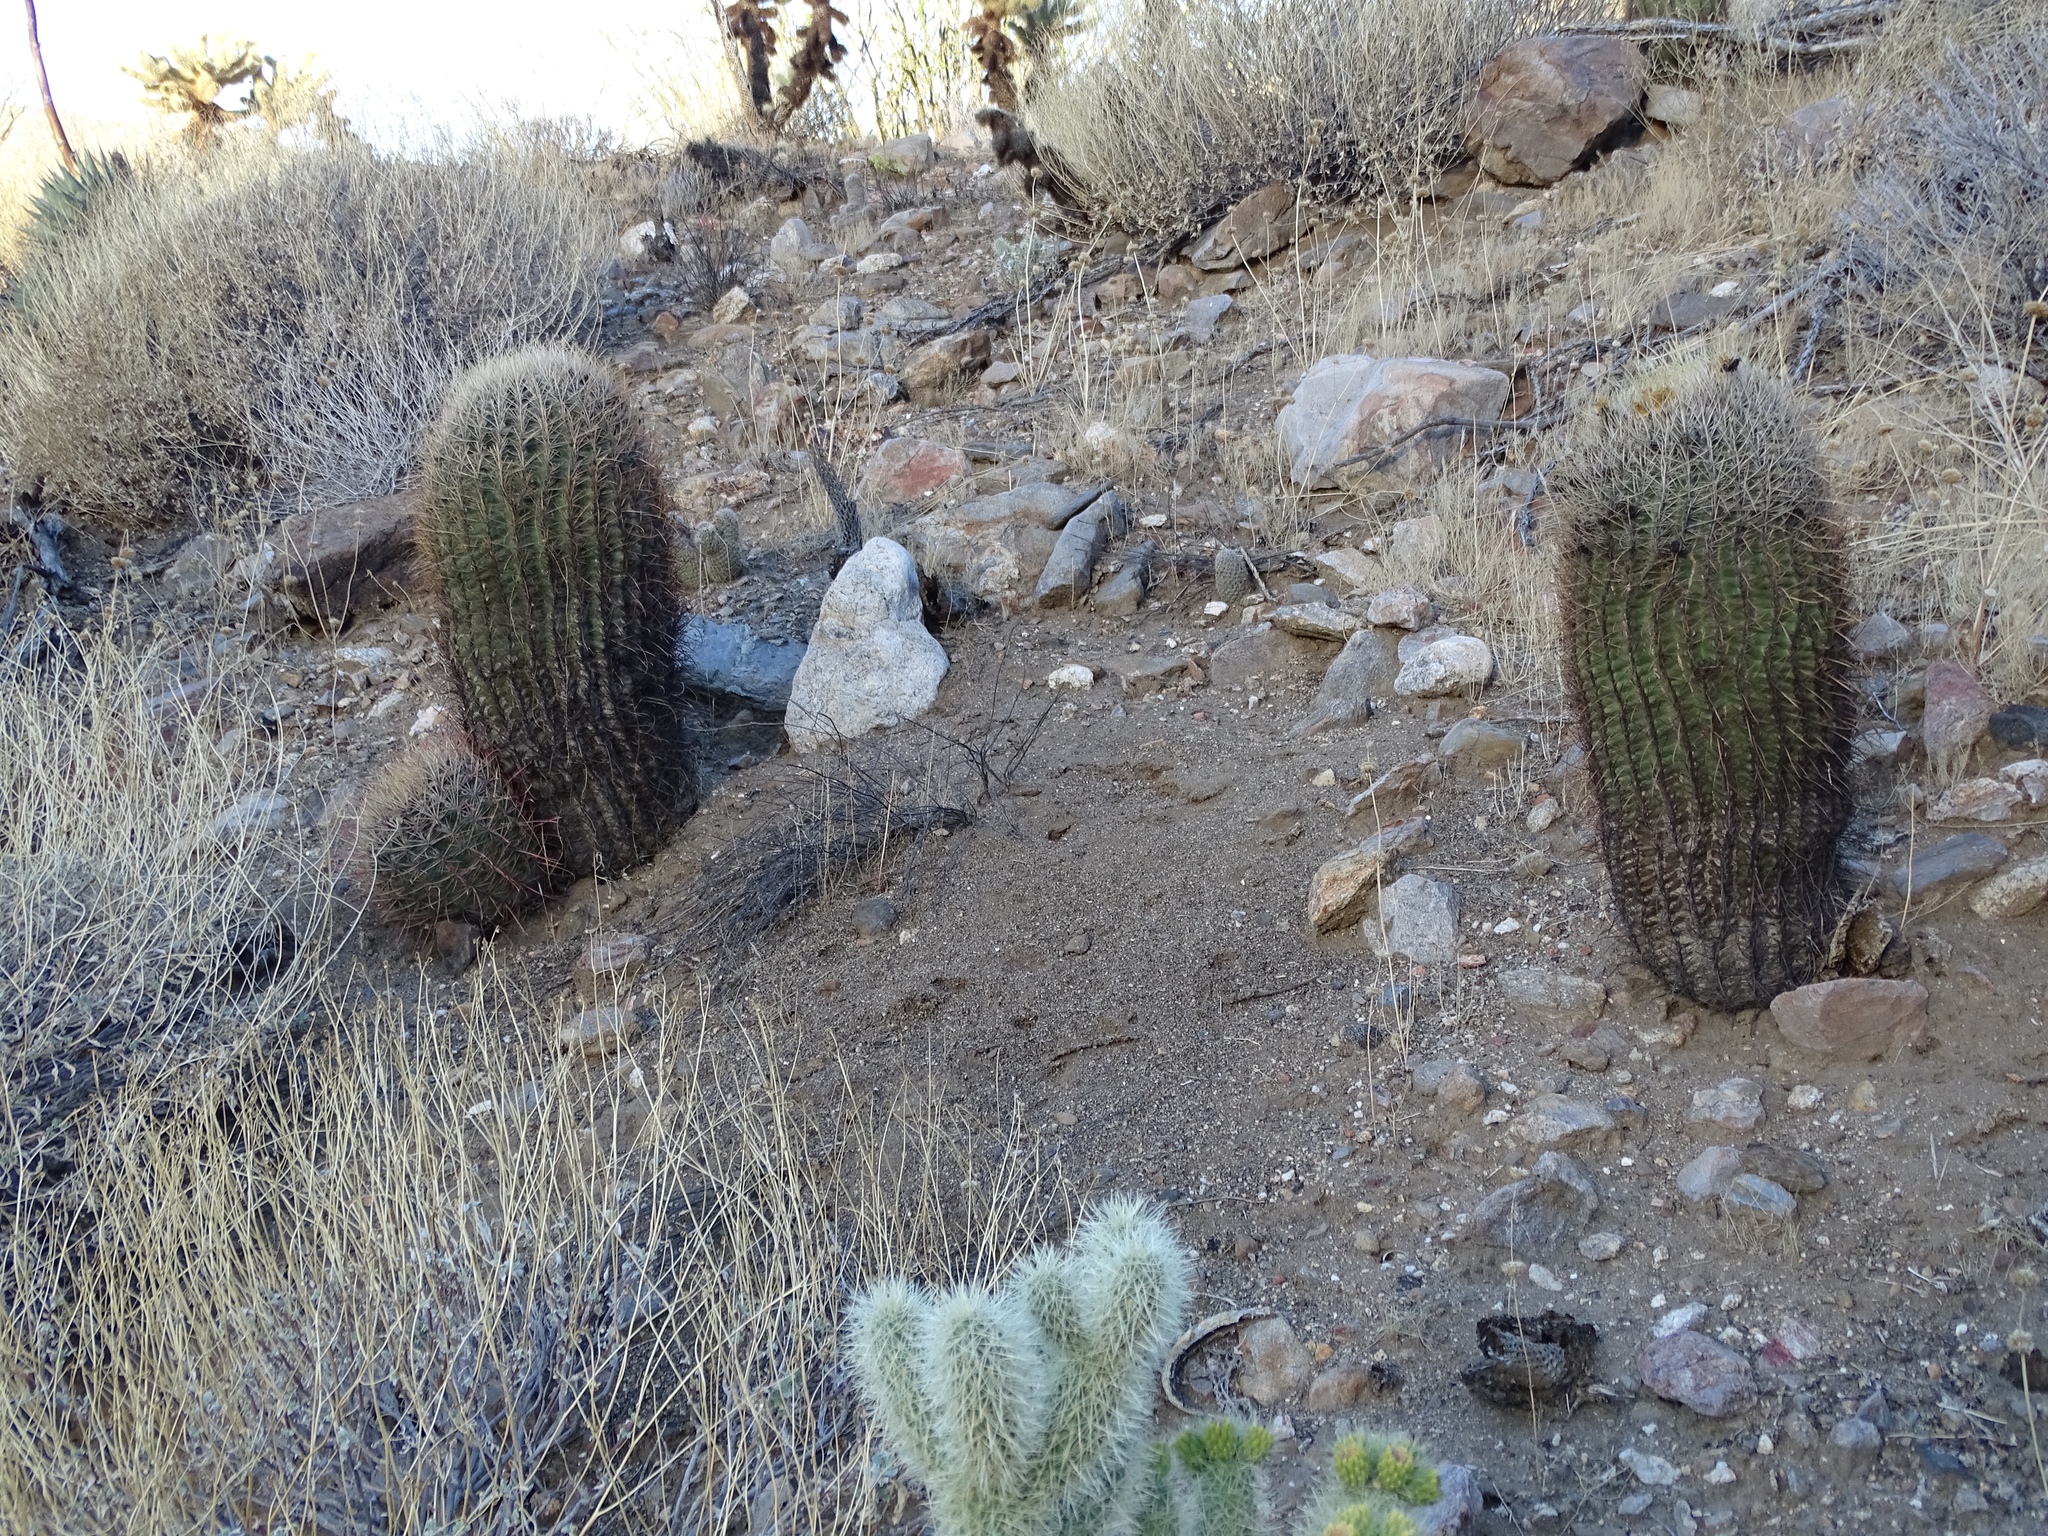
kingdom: Plantae
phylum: Tracheophyta
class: Magnoliopsida
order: Caryophyllales
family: Cactaceae
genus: Ferocactus
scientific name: Ferocactus cylindraceus
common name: California barrel cactus
